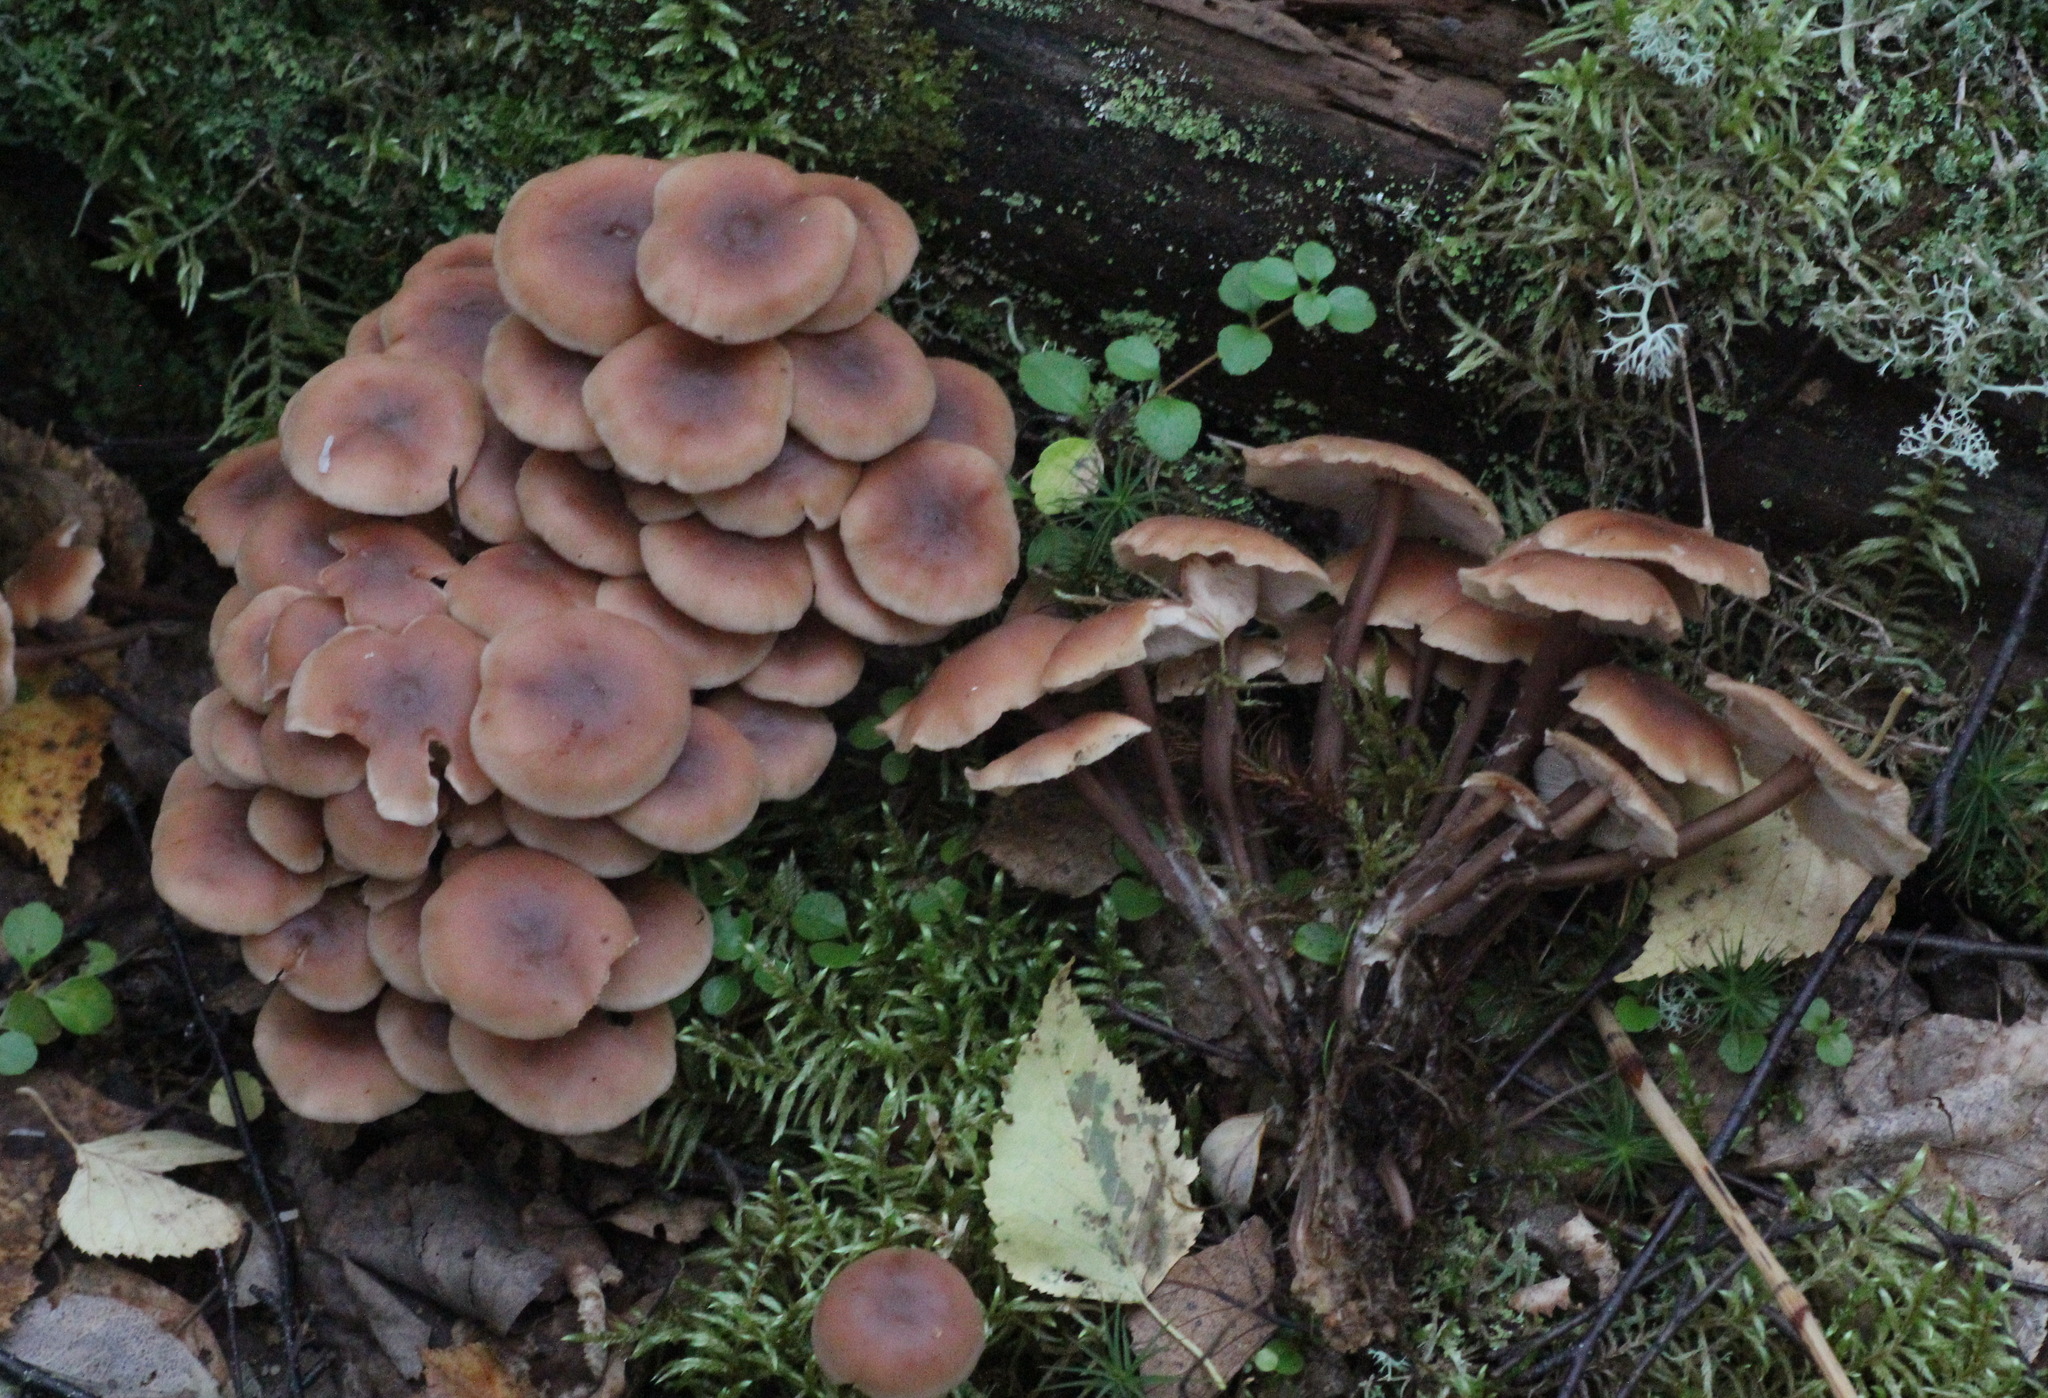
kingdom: Fungi
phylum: Basidiomycota
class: Agaricomycetes
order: Agaricales
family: Omphalotaceae
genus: Collybiopsis
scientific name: Collybiopsis confluens
